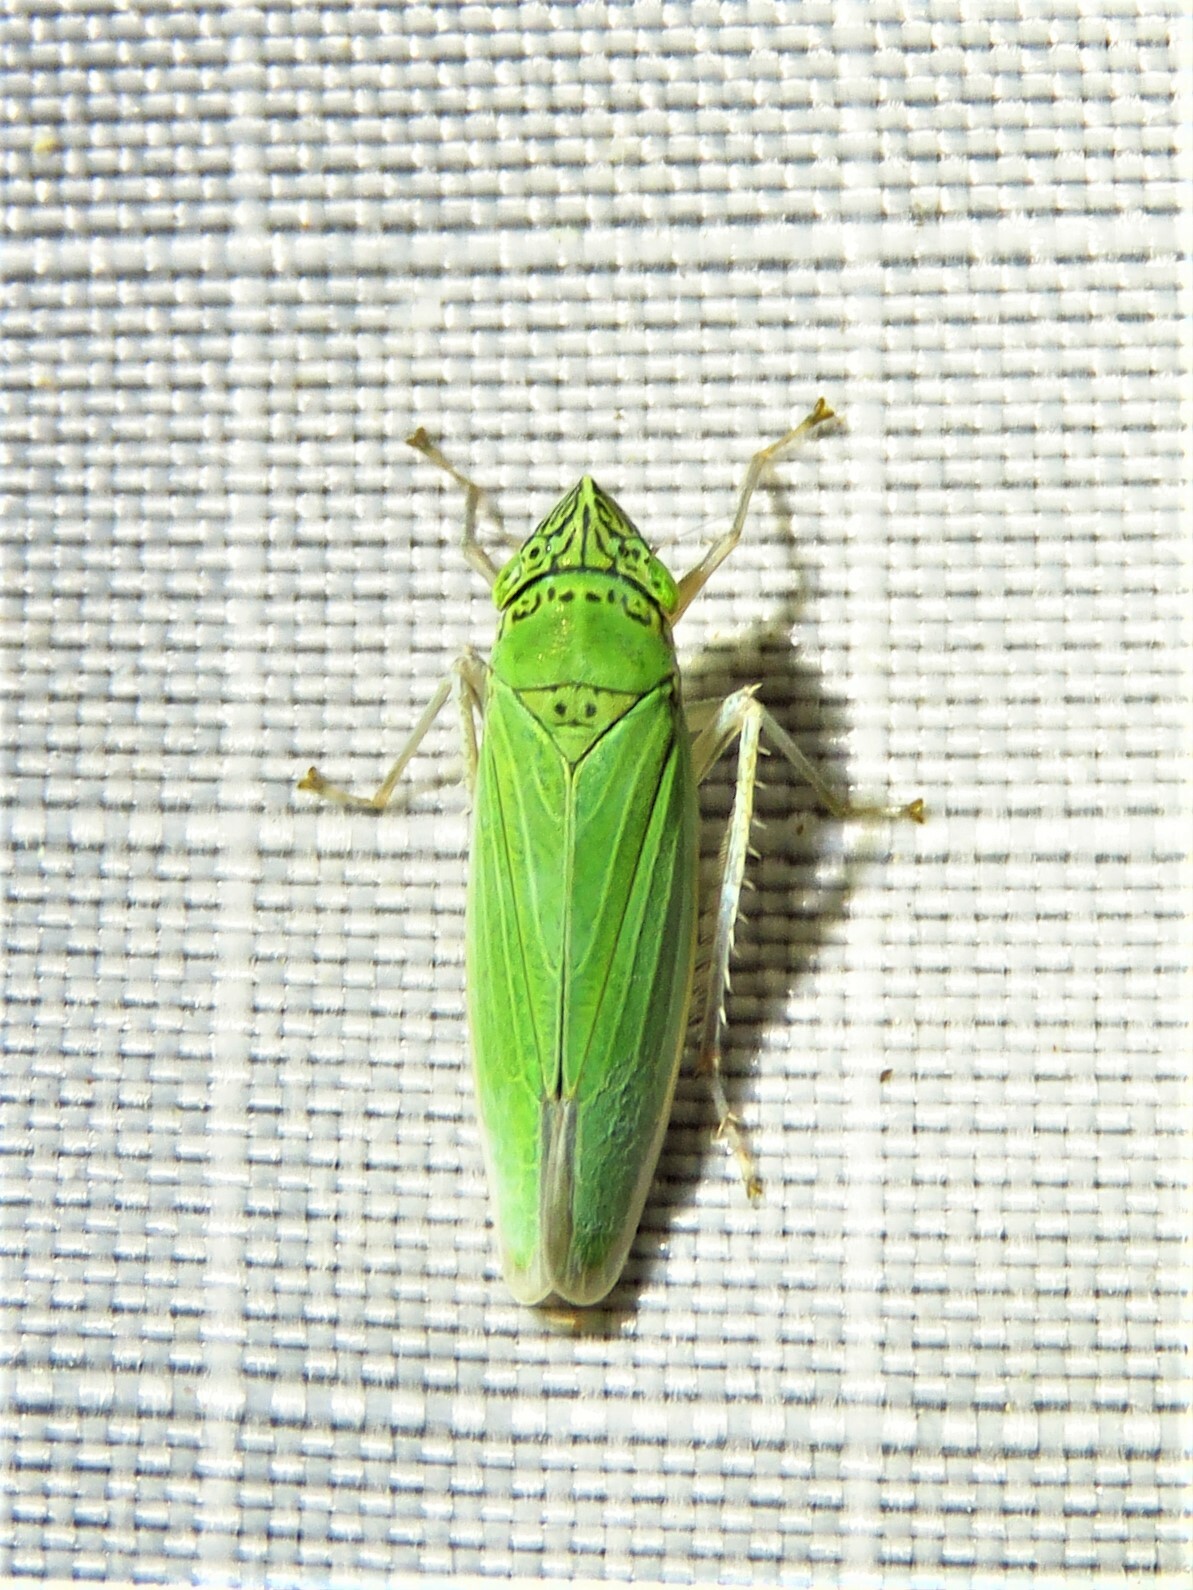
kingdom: Animalia
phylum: Arthropoda
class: Insecta
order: Hemiptera
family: Cicadellidae
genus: Draeculacephala
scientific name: Draeculacephala inscripta
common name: Leafhopper
